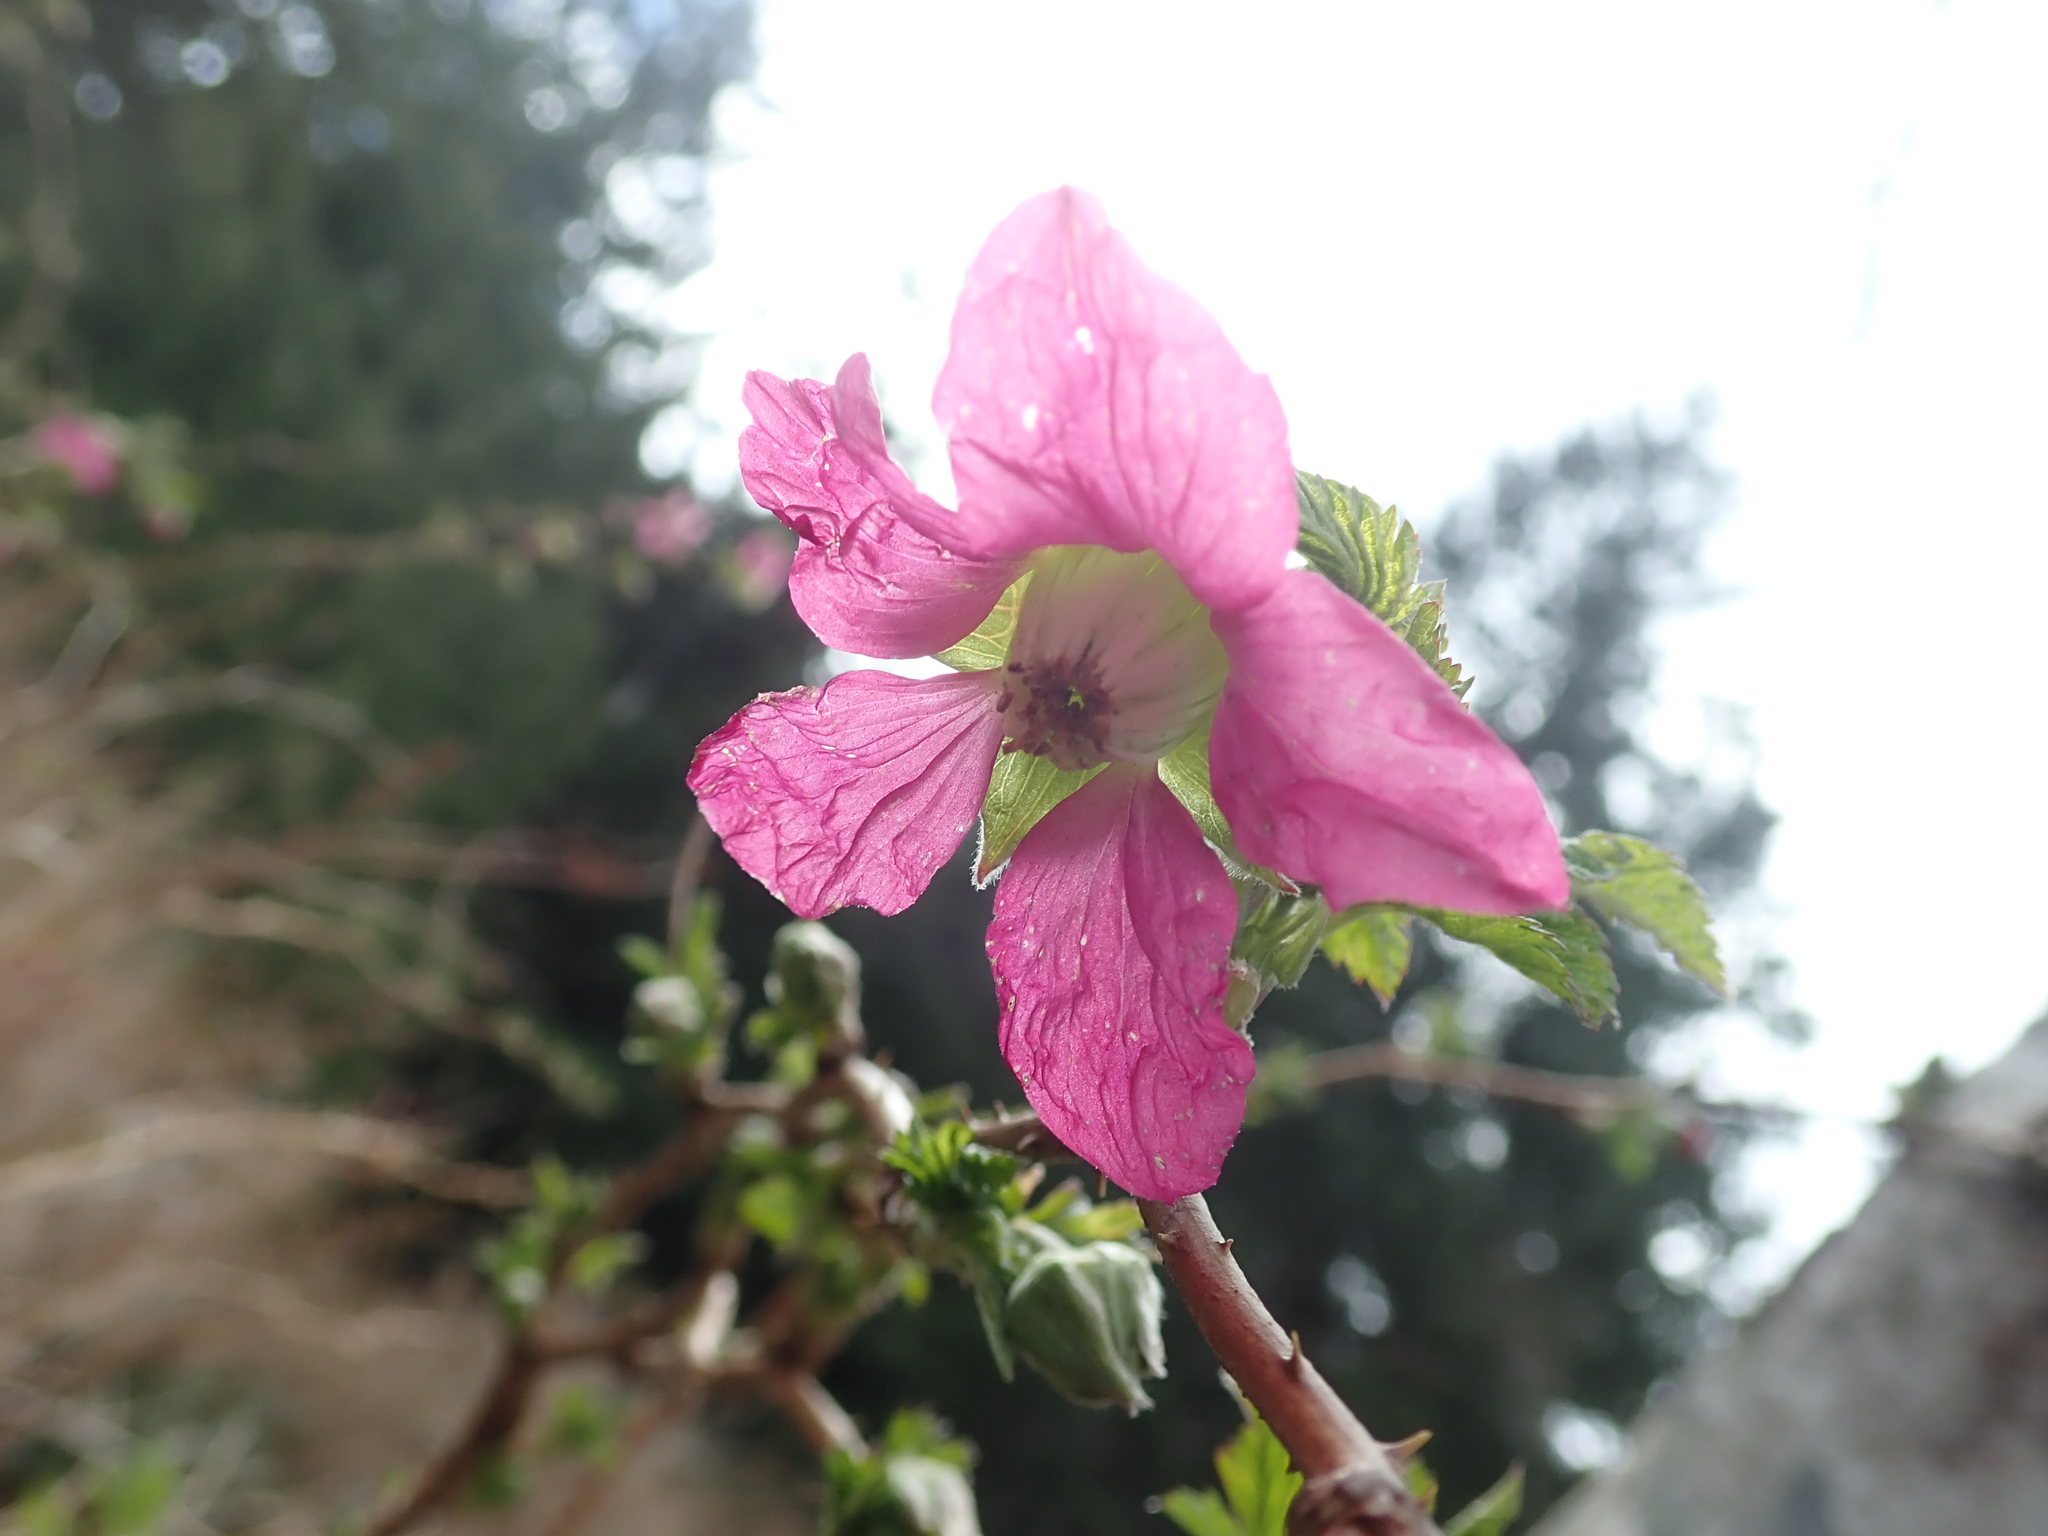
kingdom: Plantae
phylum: Tracheophyta
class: Magnoliopsida
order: Rosales
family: Rosaceae
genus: Rubus
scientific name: Rubus spectabilis
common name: Salmonberry
